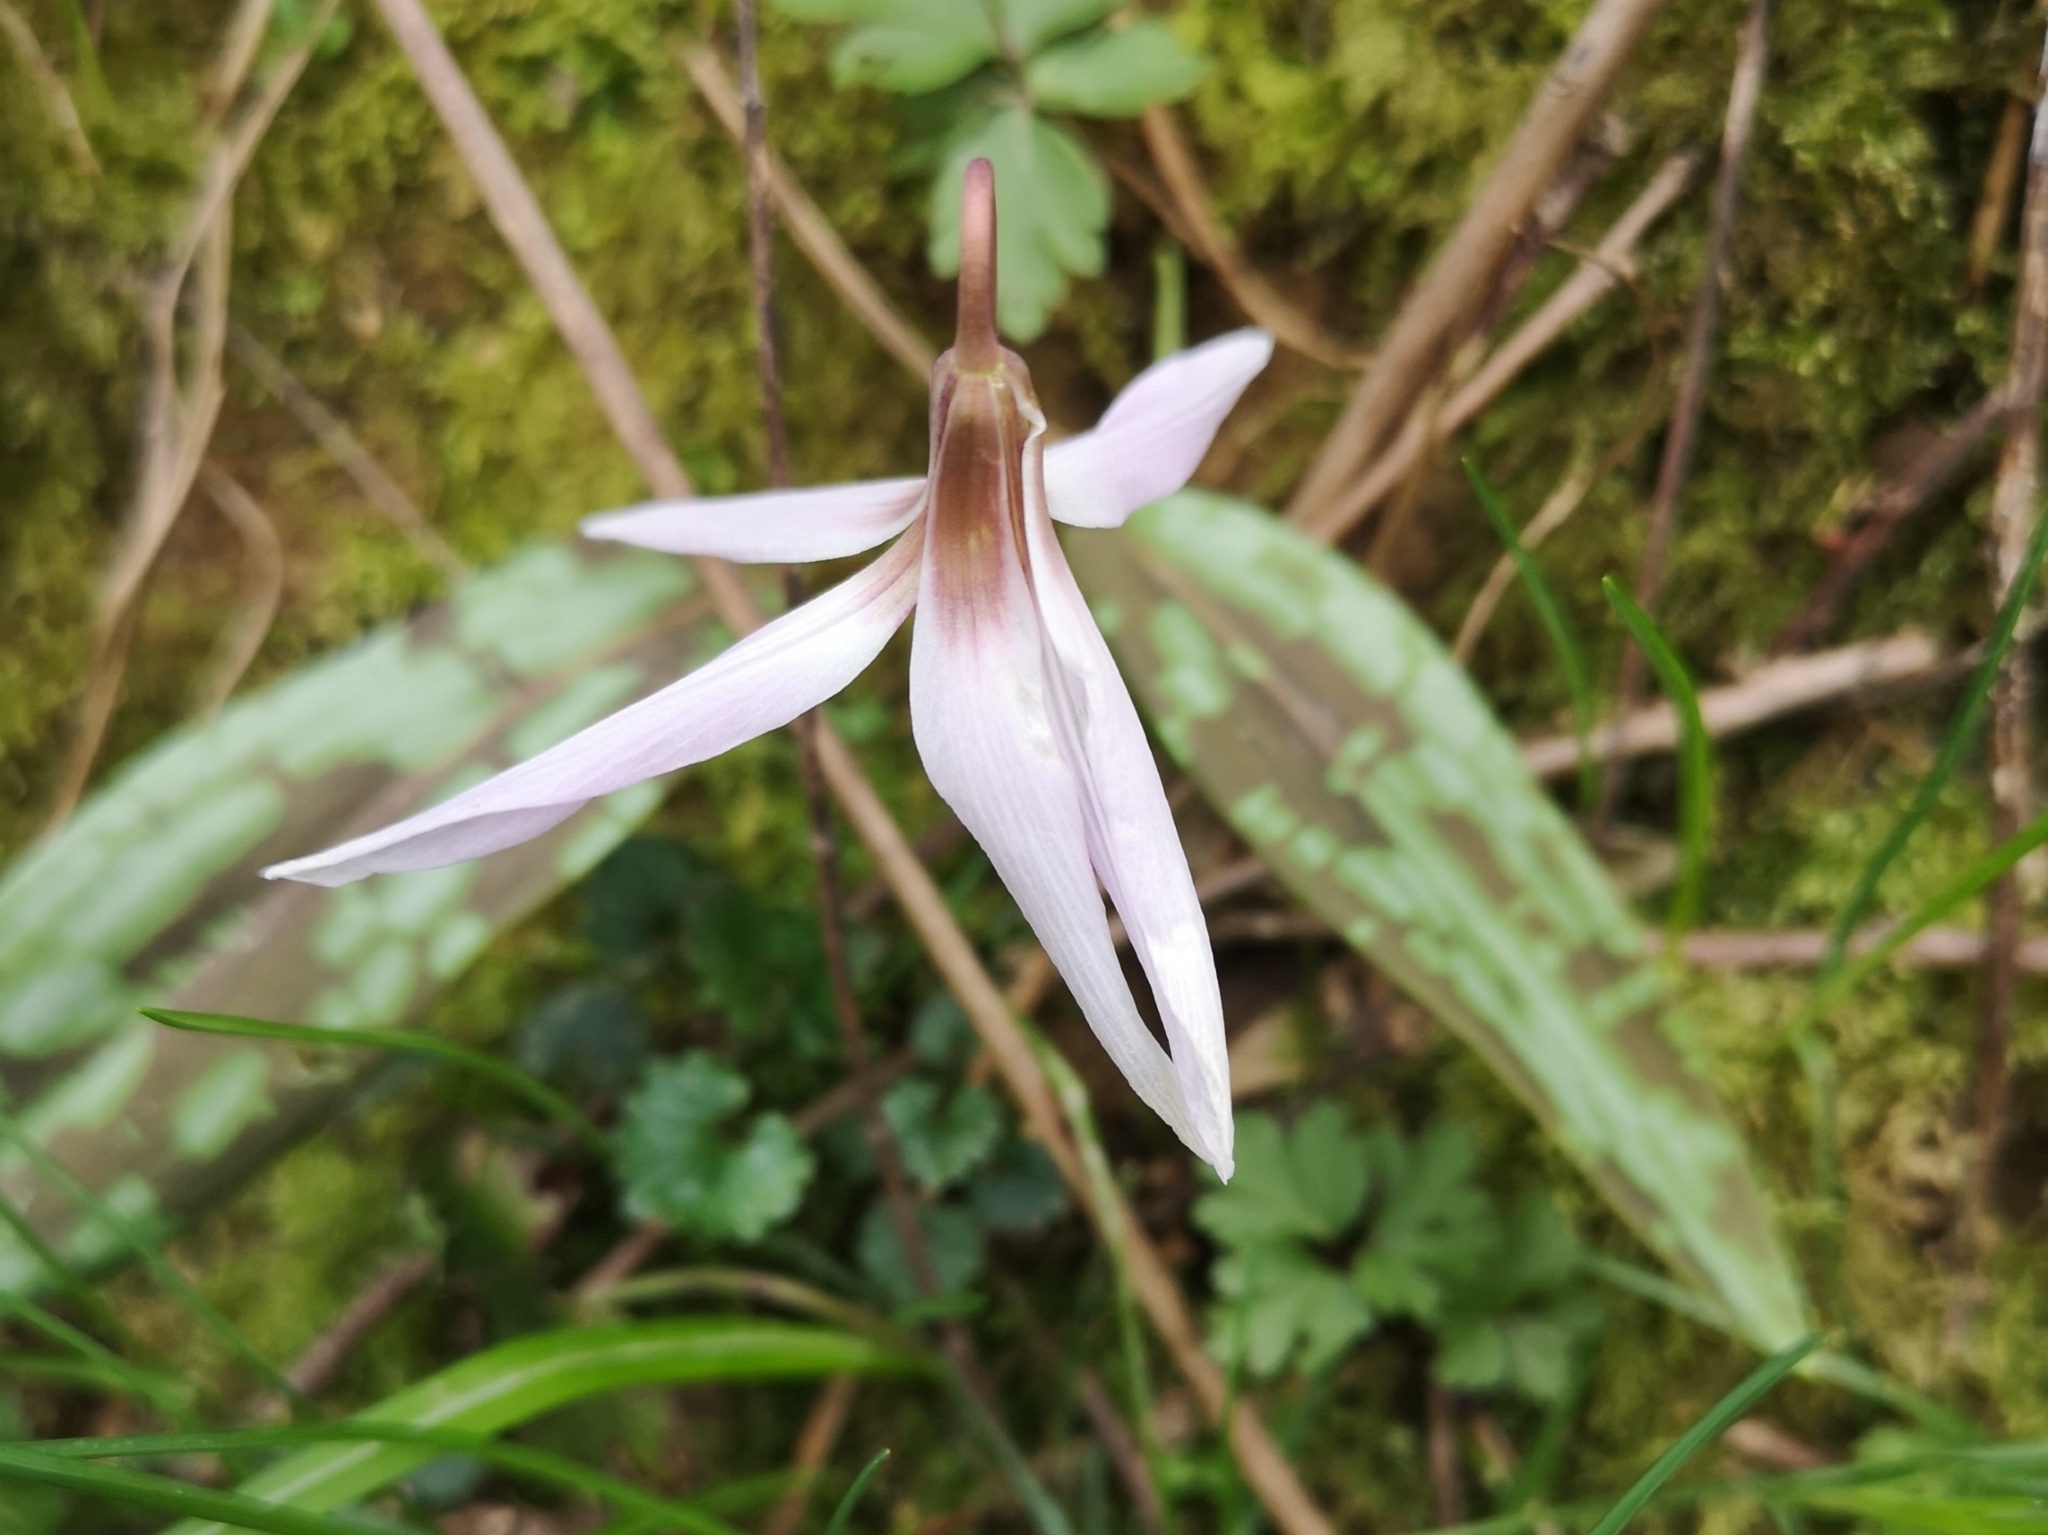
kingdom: Plantae
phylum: Tracheophyta
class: Liliopsida
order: Liliales
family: Liliaceae
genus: Erythronium
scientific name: Erythronium dens-canis
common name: Dog's-tooth-violet
